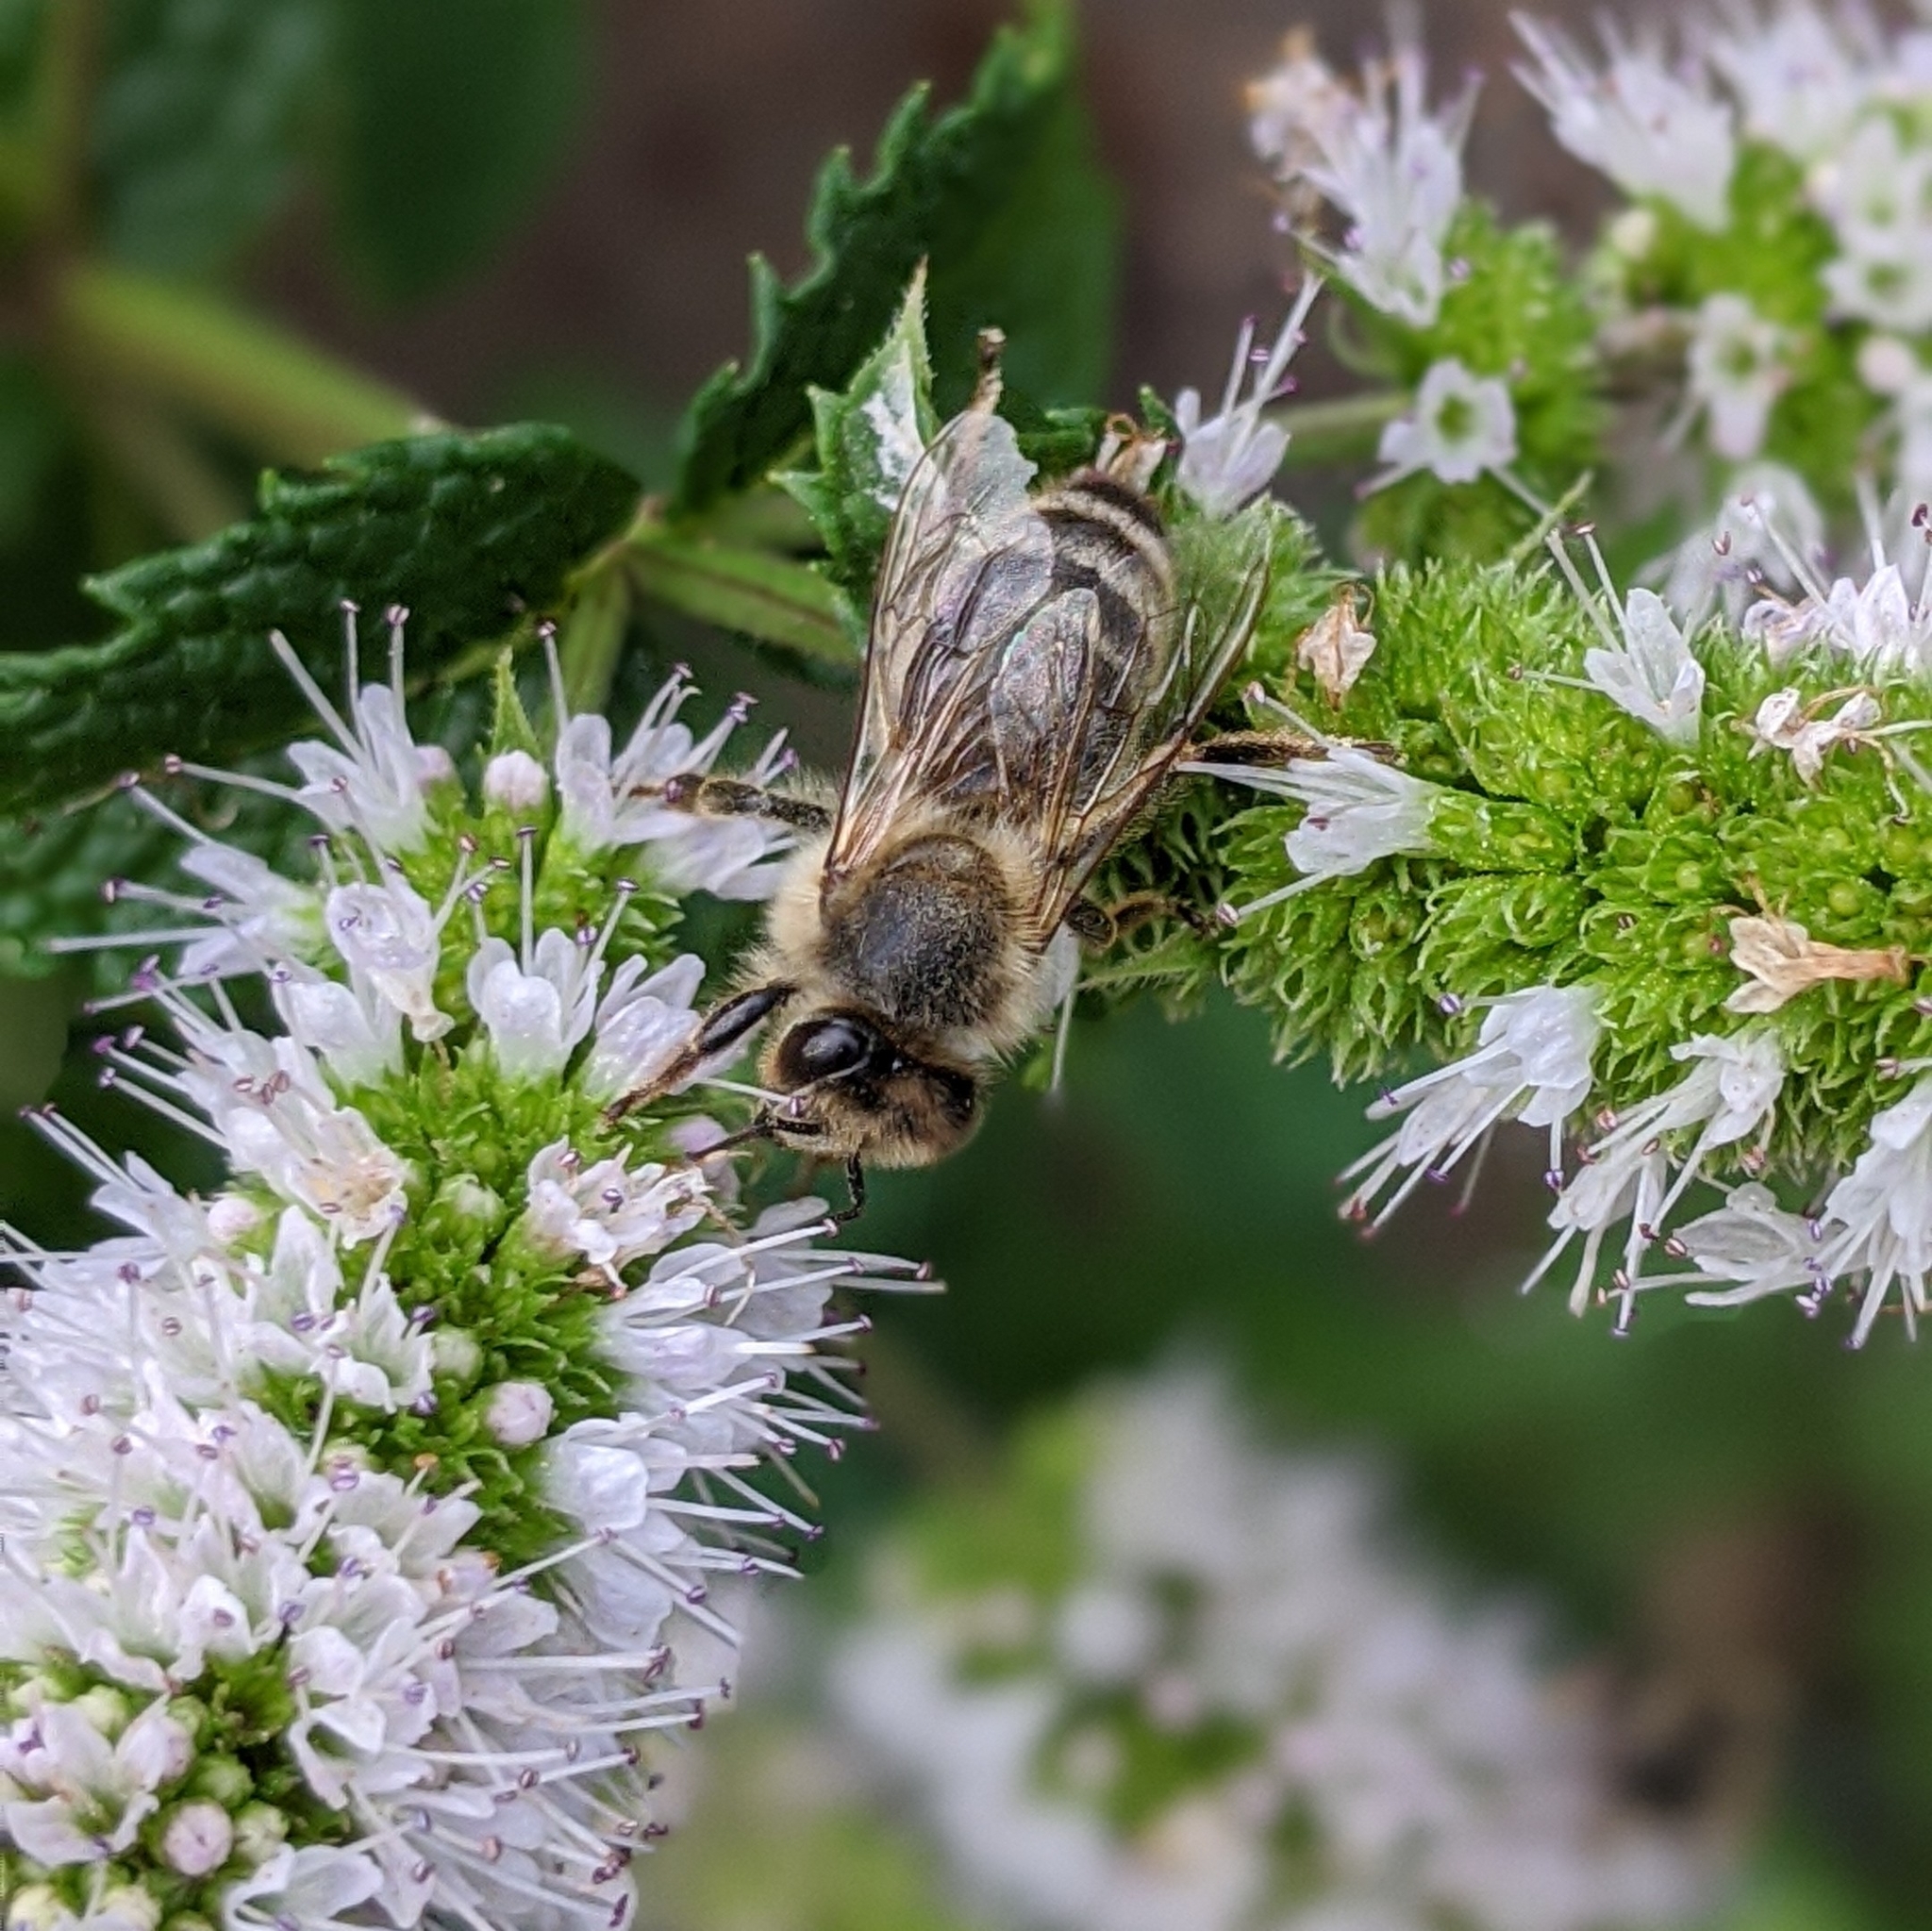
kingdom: Animalia
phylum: Arthropoda
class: Insecta
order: Hymenoptera
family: Apidae
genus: Apis
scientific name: Apis mellifera
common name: Honey bee
